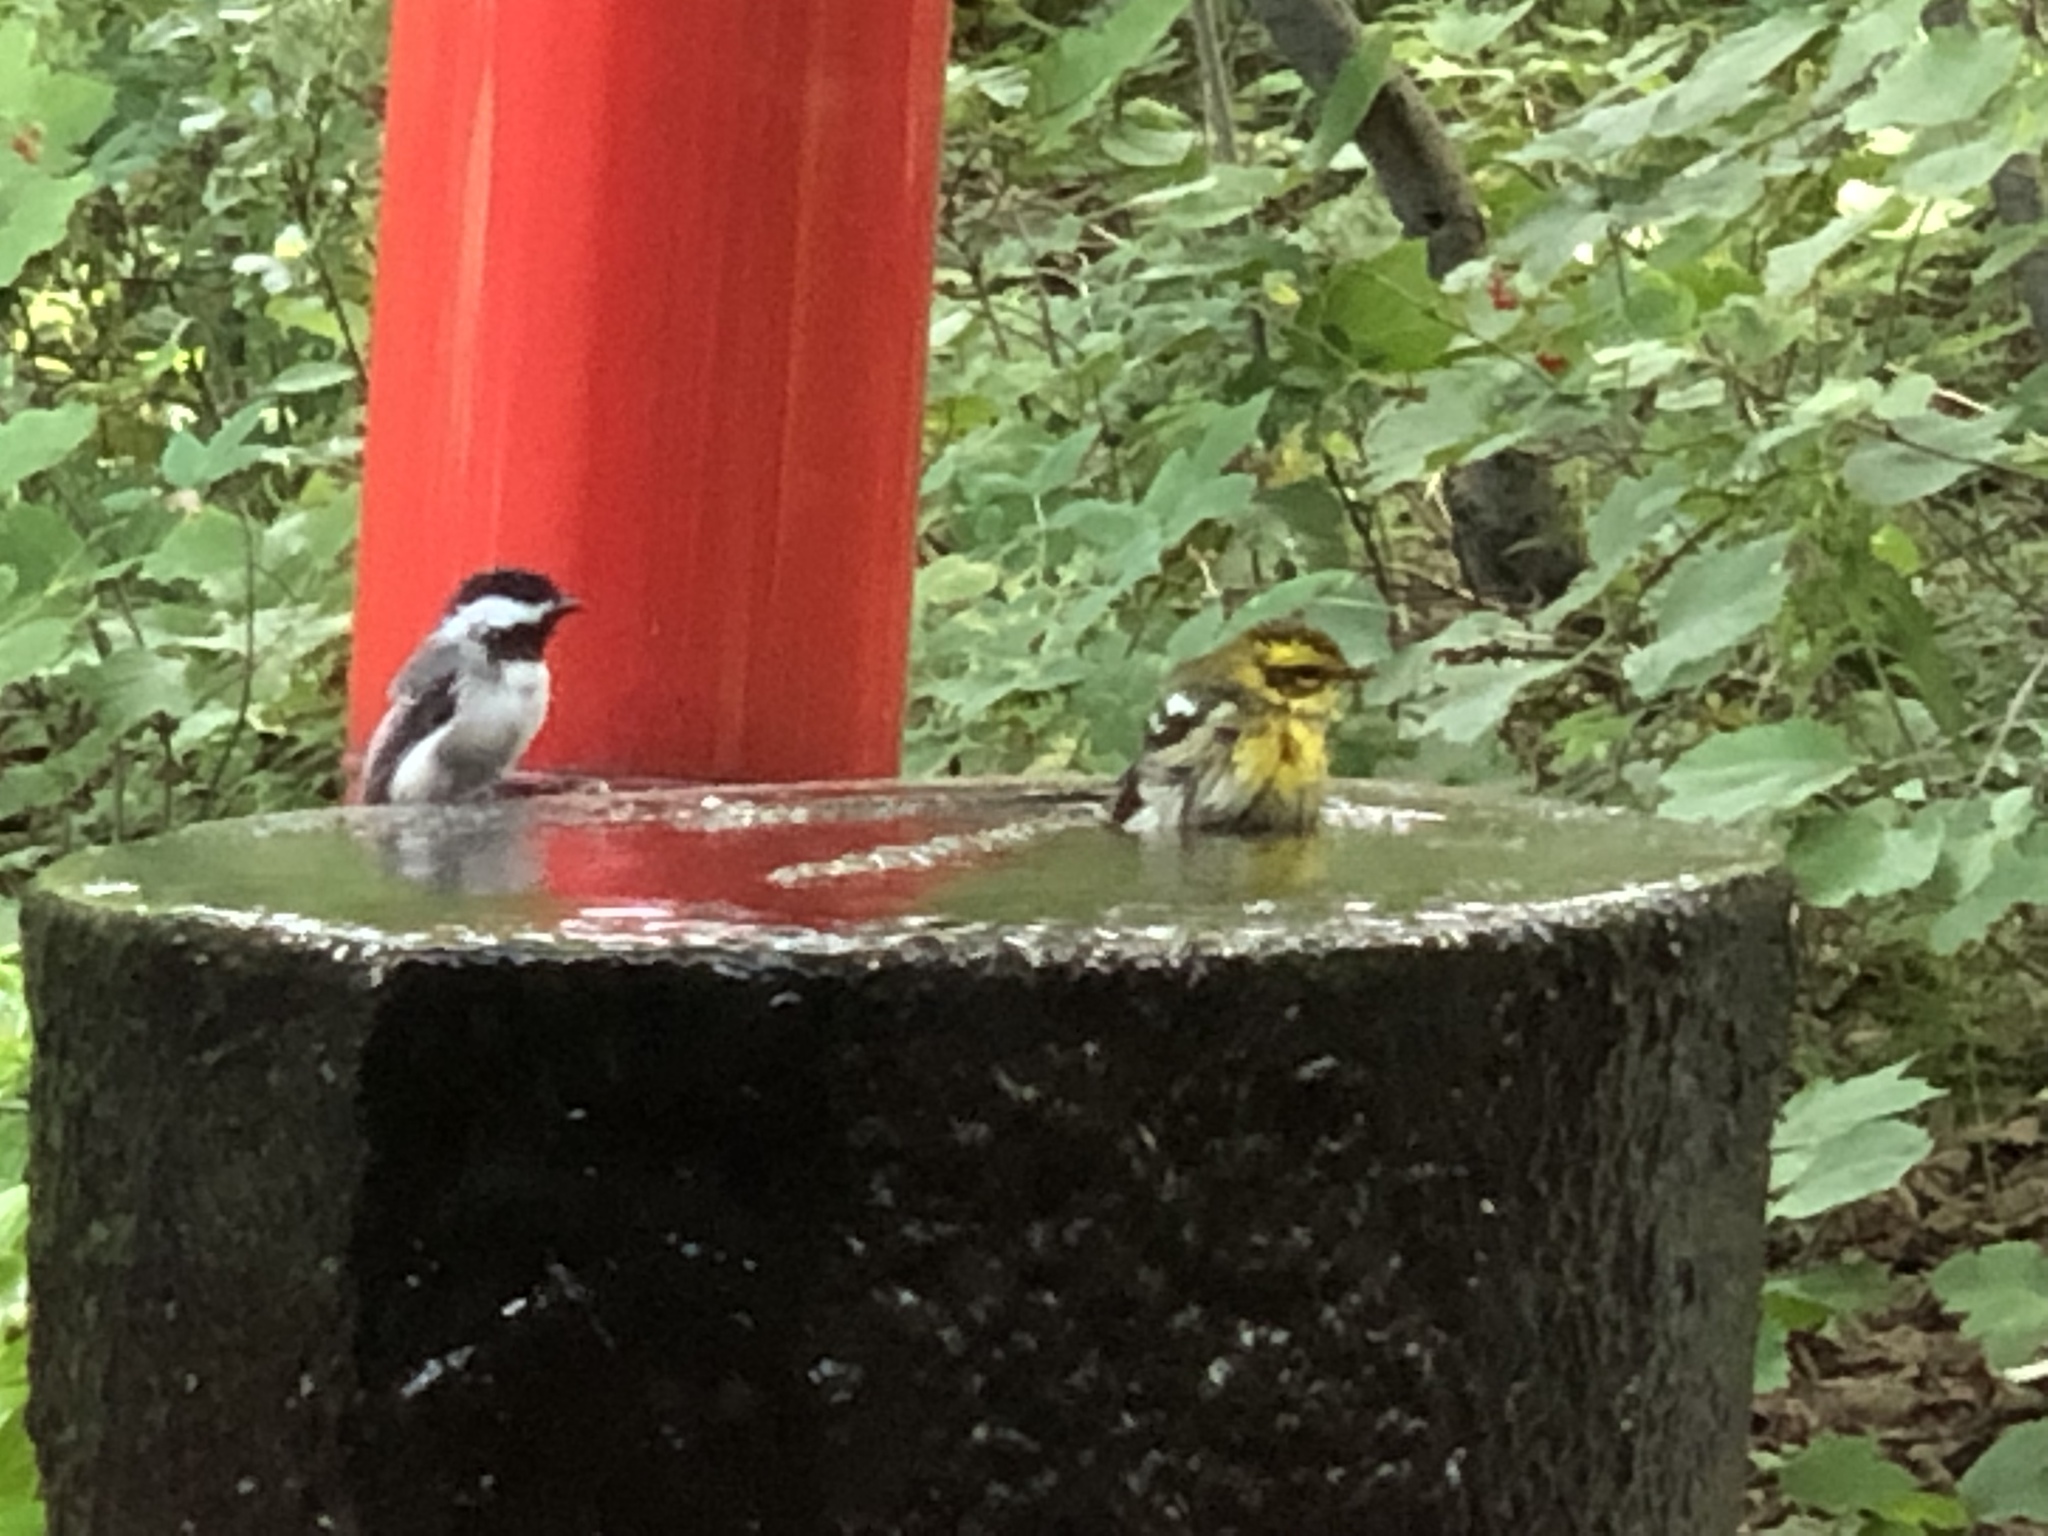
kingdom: Animalia
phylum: Chordata
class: Aves
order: Passeriformes
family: Paridae
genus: Poecile
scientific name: Poecile atricapillus
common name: Black-capped chickadee
